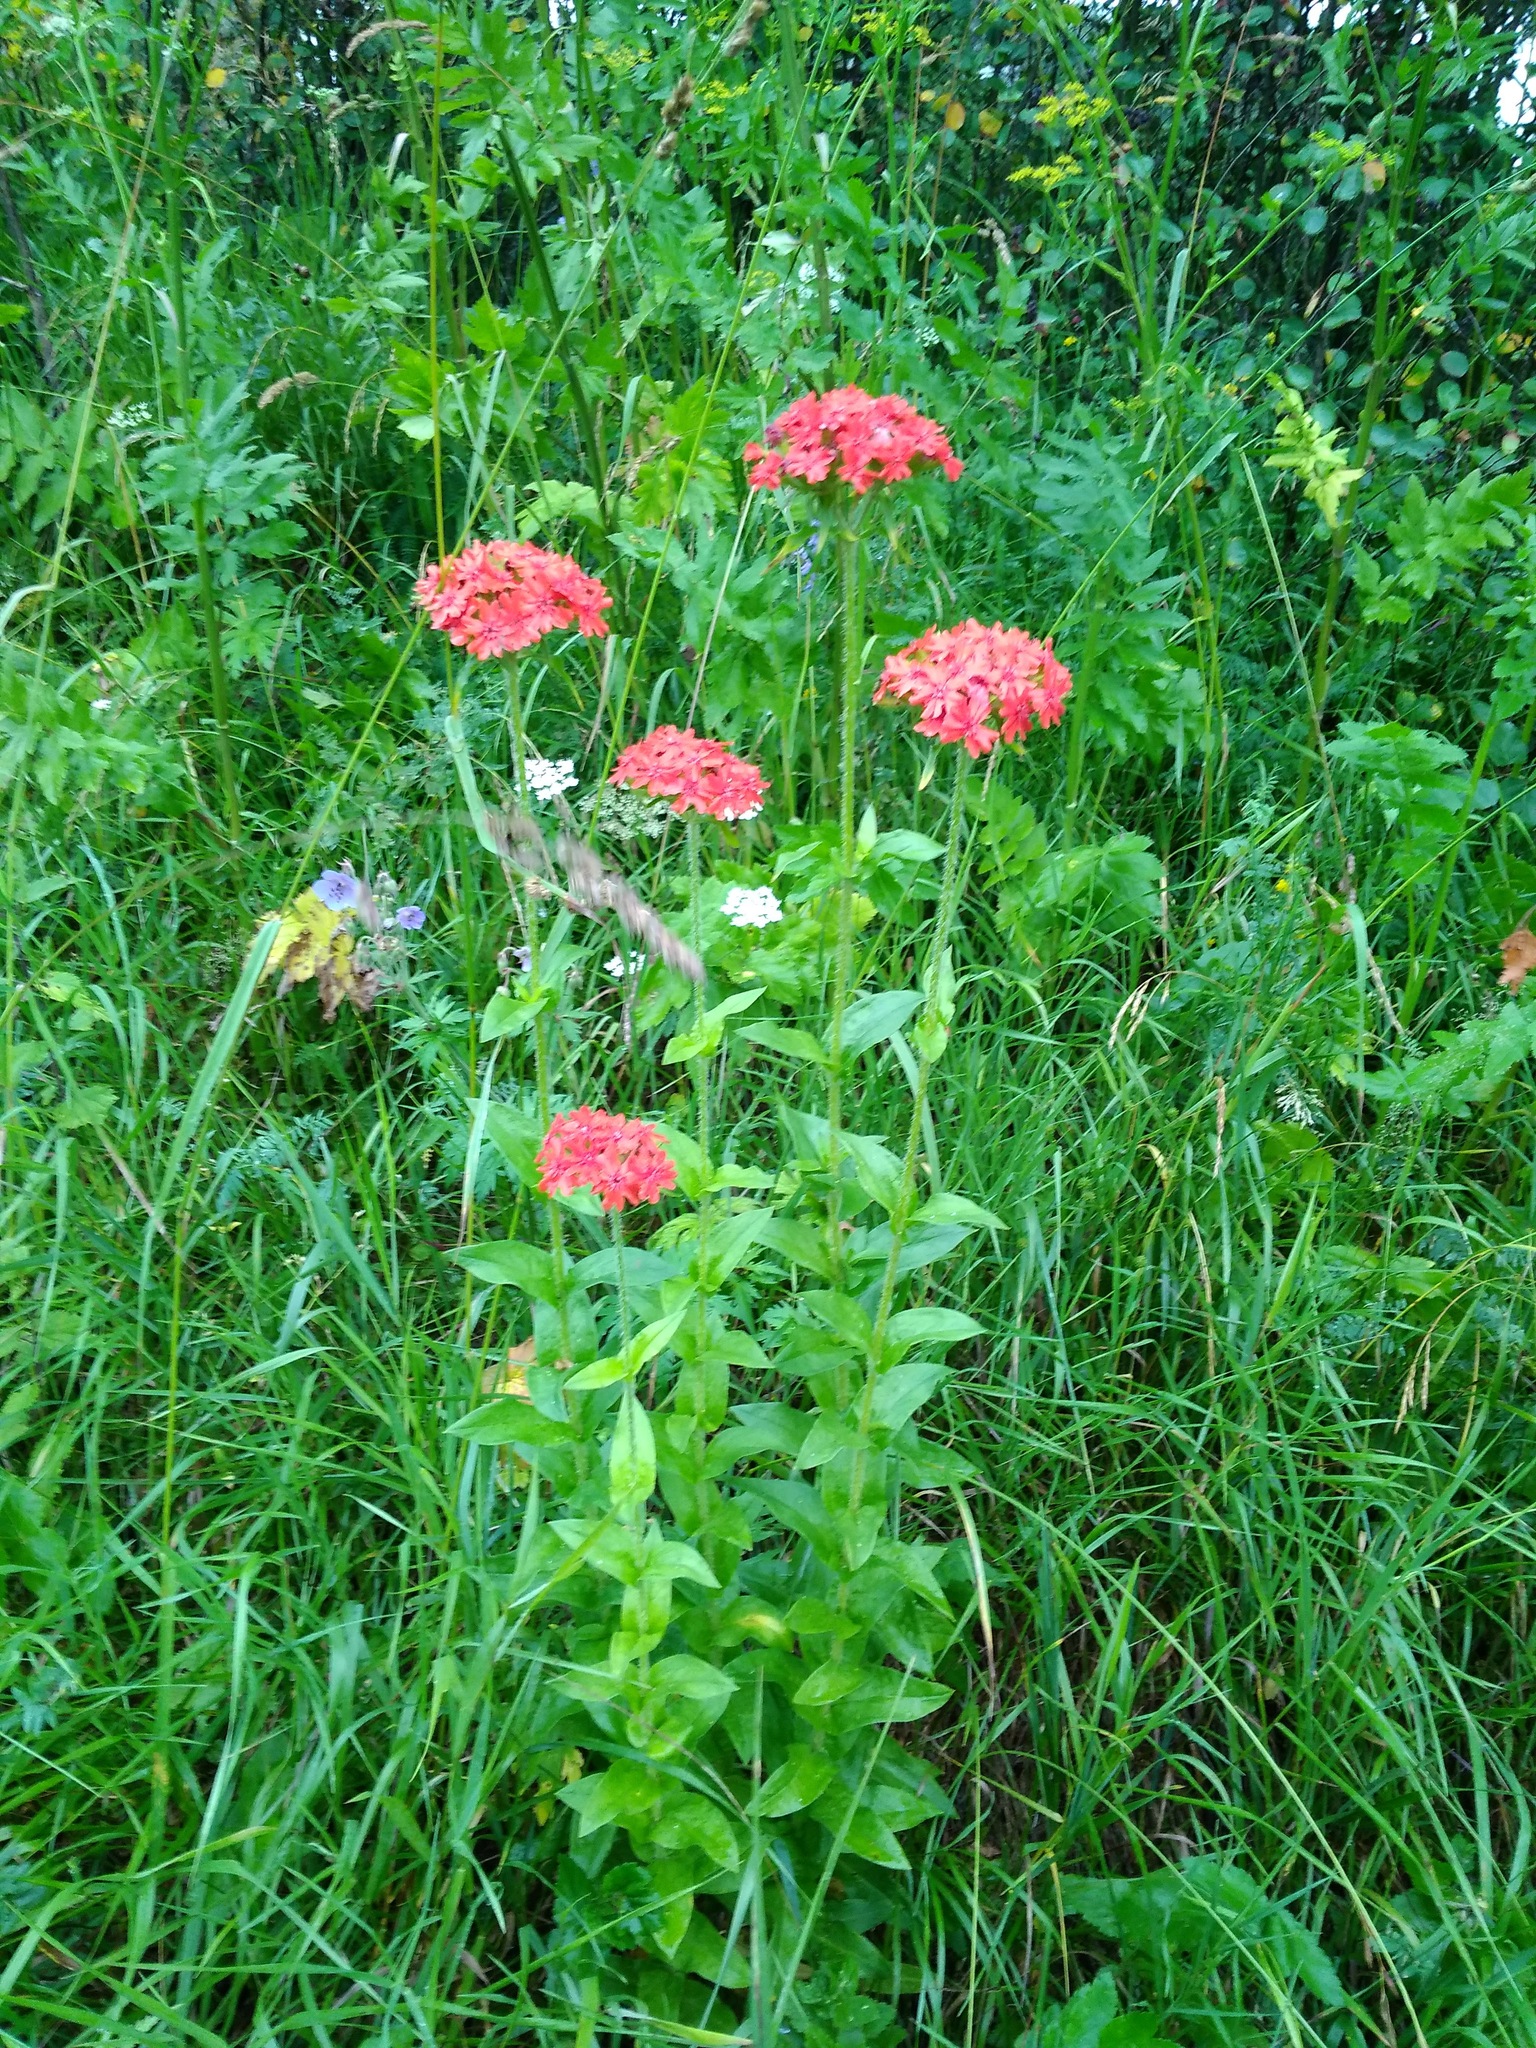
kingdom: Plantae
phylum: Tracheophyta
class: Magnoliopsida
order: Caryophyllales
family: Caryophyllaceae
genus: Silene
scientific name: Silene chalcedonica
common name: Maltese-cross
